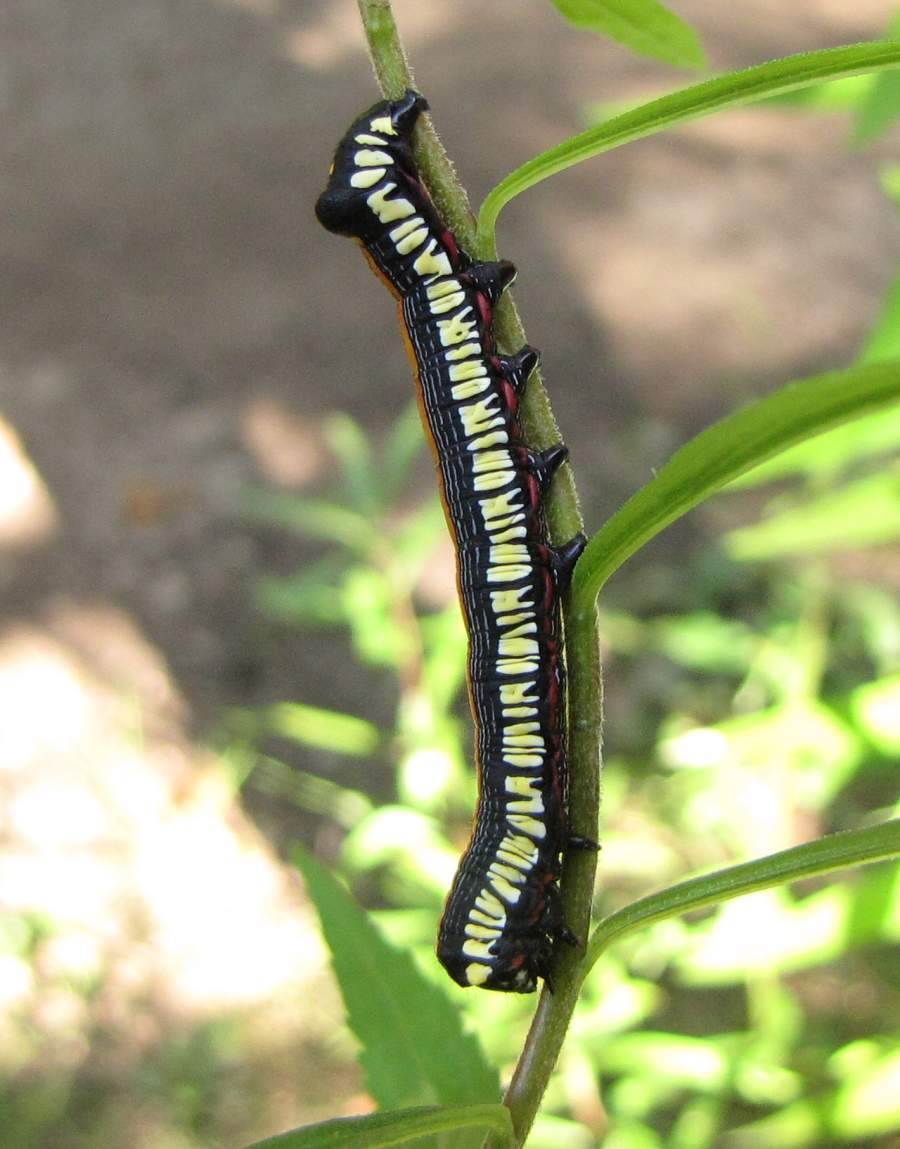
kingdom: Animalia
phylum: Arthropoda
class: Insecta
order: Lepidoptera
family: Noctuidae
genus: Cucullia
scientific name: Cucullia convexipennis
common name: Brown-hooded owlet
